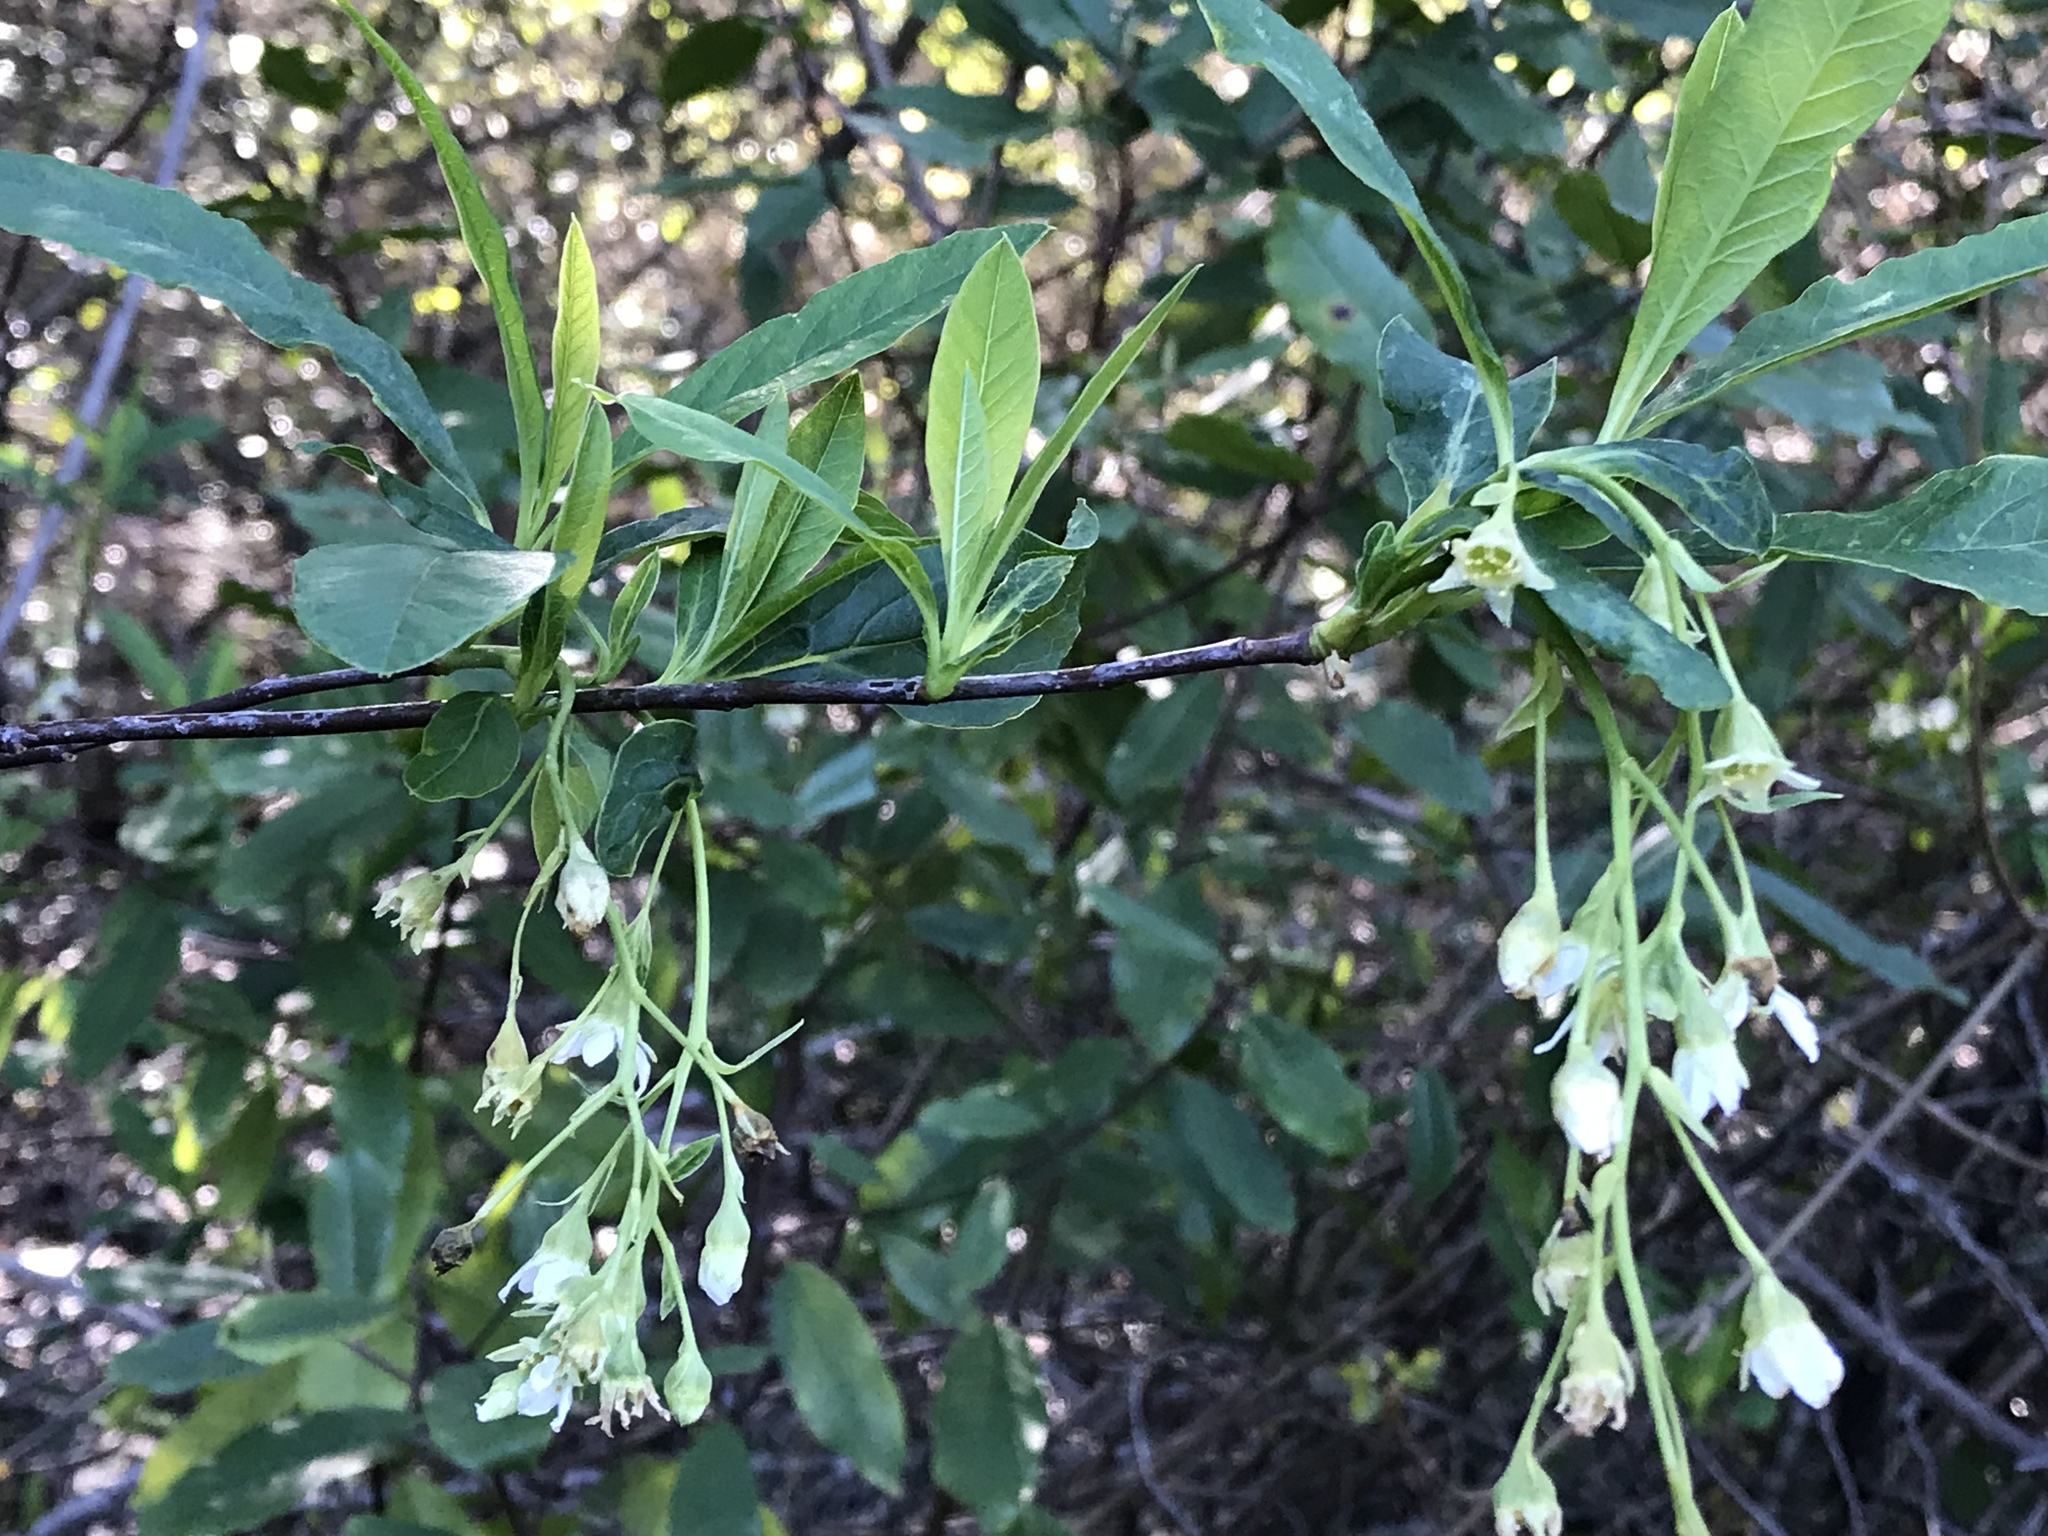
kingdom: Plantae
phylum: Tracheophyta
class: Magnoliopsida
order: Rosales
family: Rosaceae
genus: Oemleria
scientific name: Oemleria cerasiformis
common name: Osoberry
